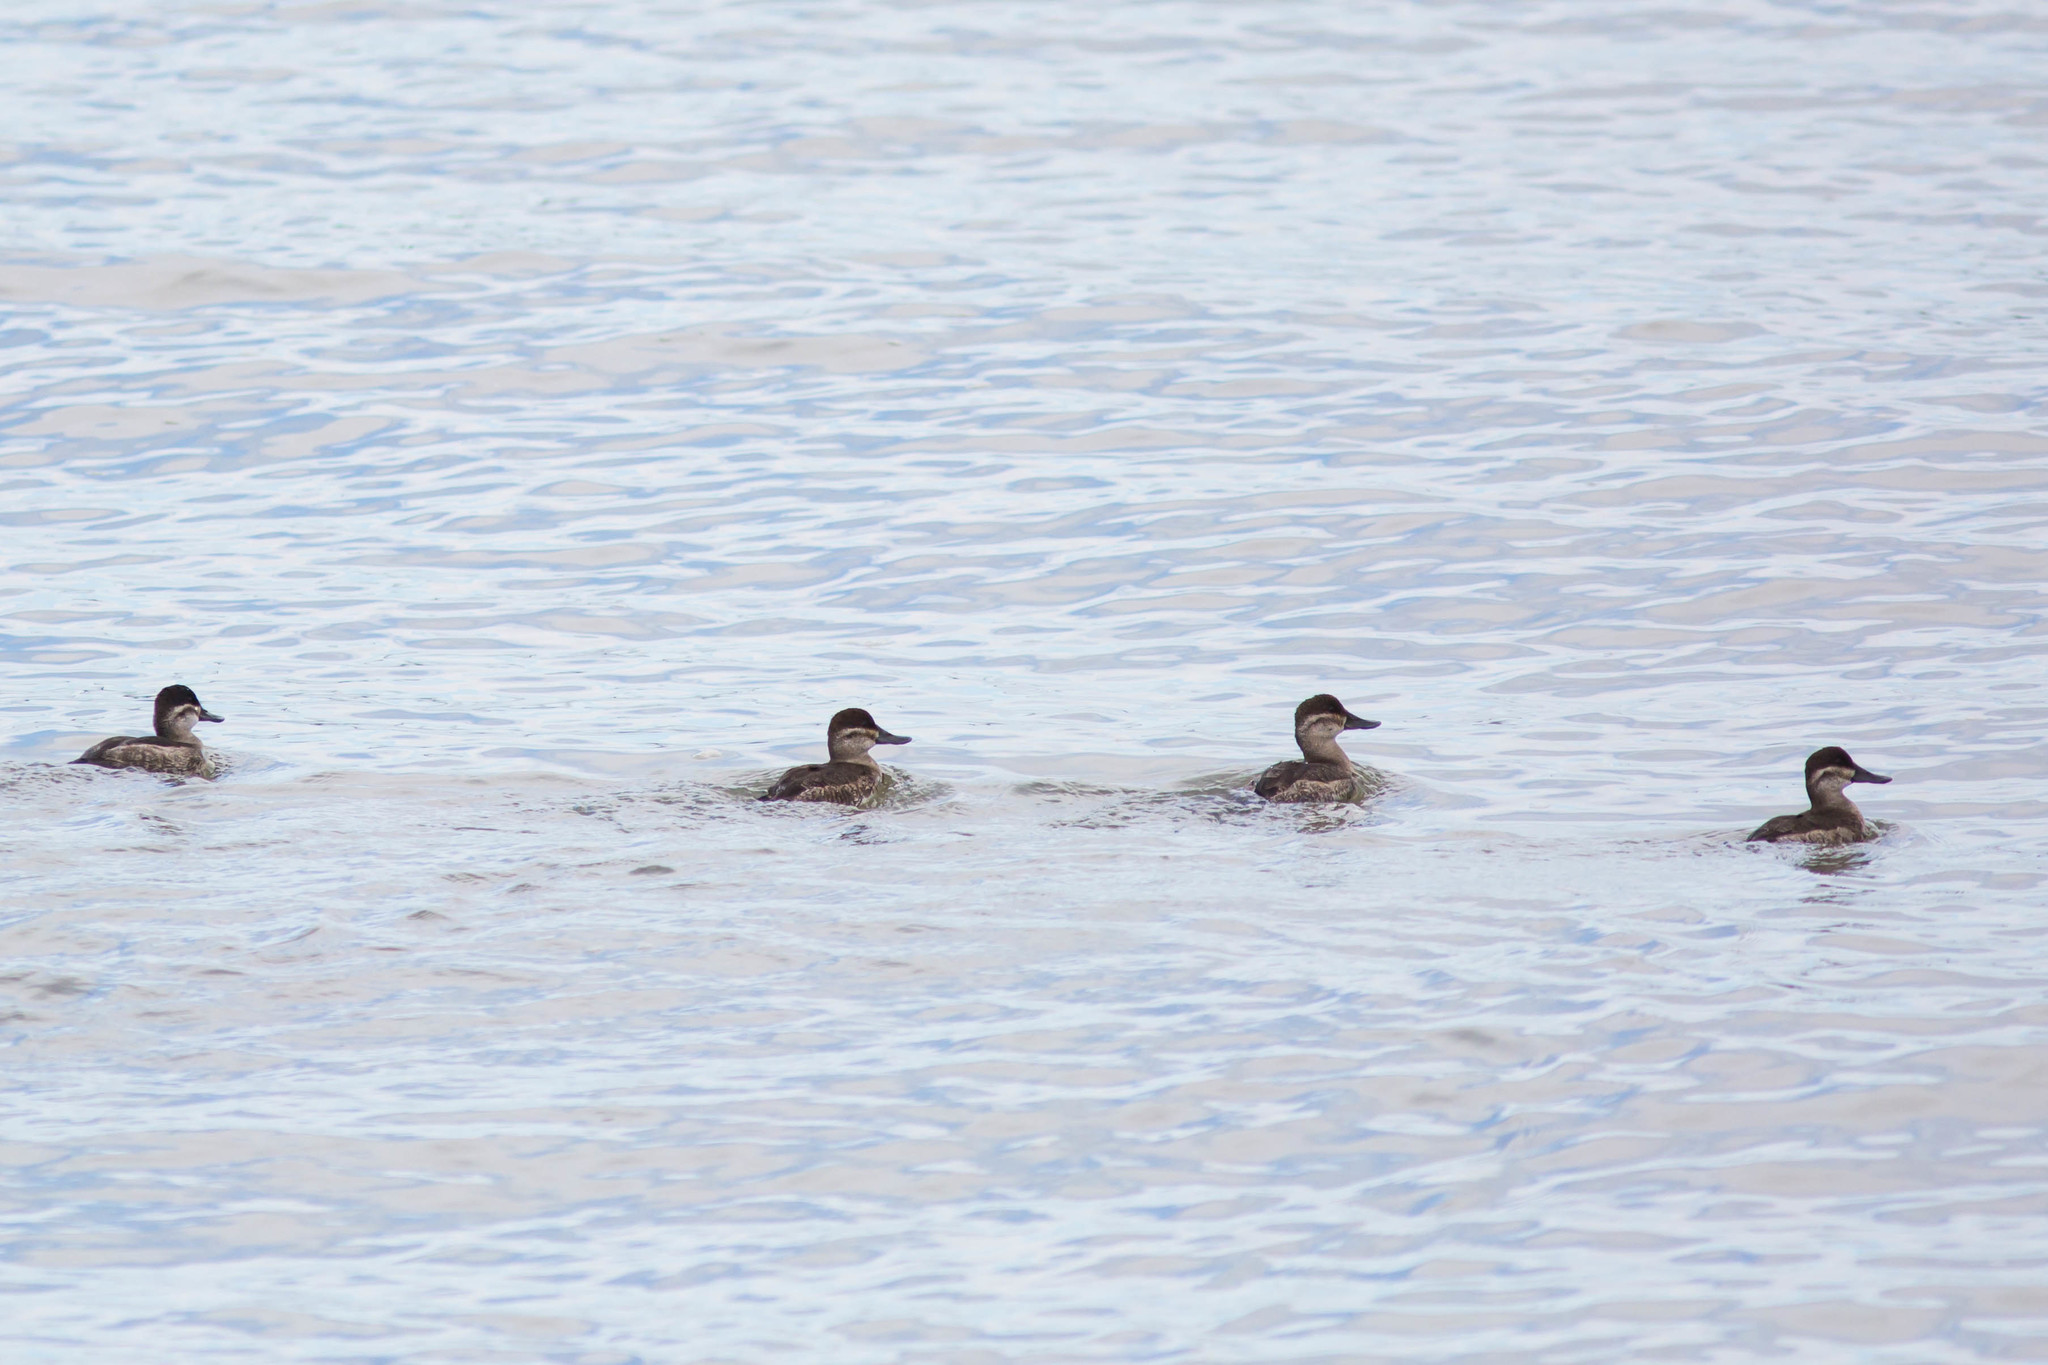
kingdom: Animalia
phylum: Chordata
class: Aves
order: Anseriformes
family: Anatidae
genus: Oxyura
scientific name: Oxyura jamaicensis
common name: Ruddy duck
